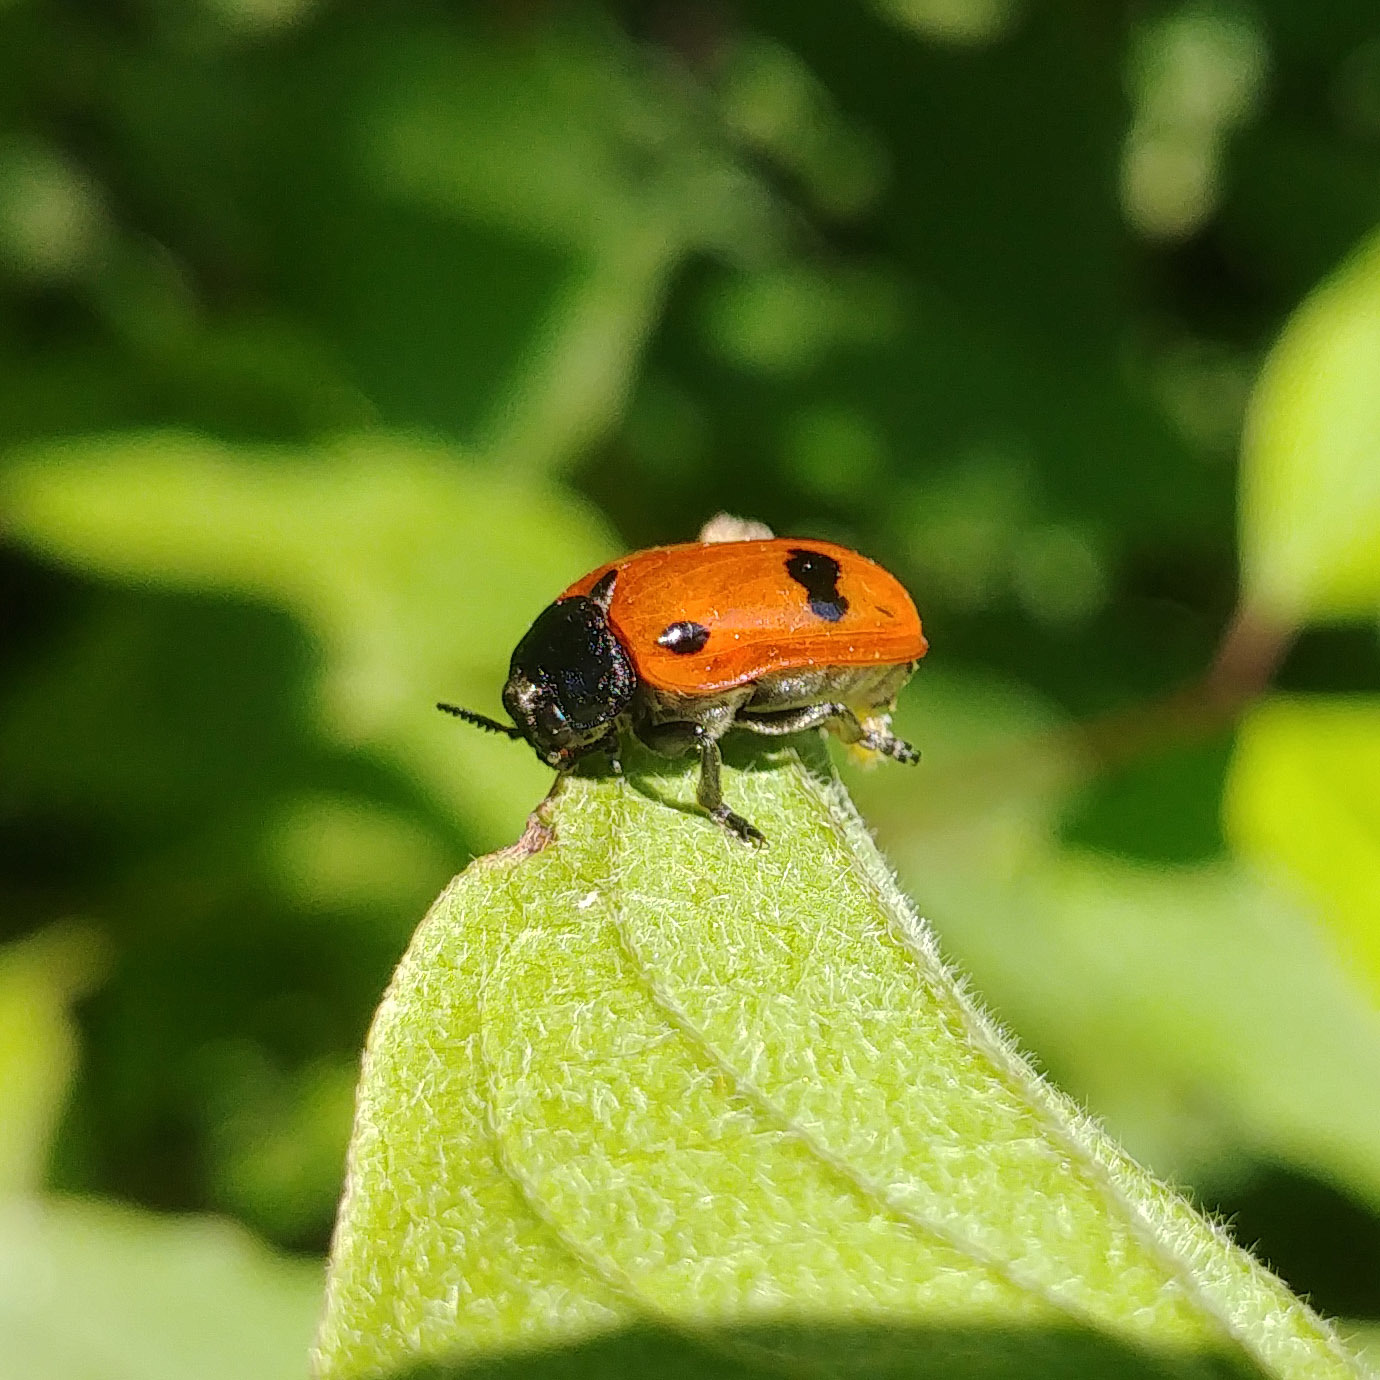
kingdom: Animalia
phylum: Arthropoda
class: Insecta
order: Coleoptera
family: Chrysomelidae
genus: Clytra
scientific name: Clytra laeviuscula
